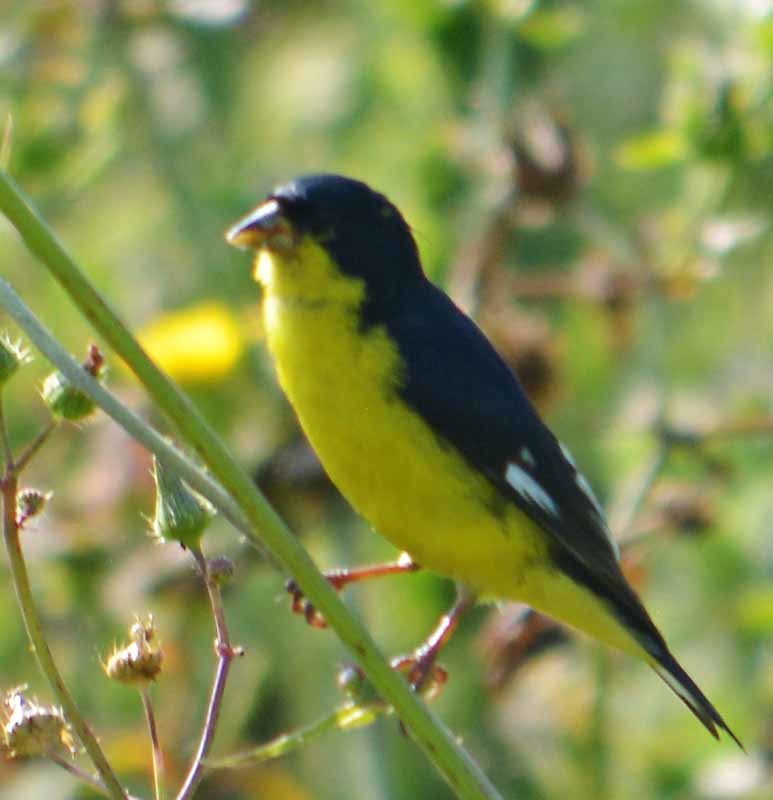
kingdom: Animalia
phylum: Chordata
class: Aves
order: Passeriformes
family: Fringillidae
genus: Spinus
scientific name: Spinus psaltria
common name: Lesser goldfinch
